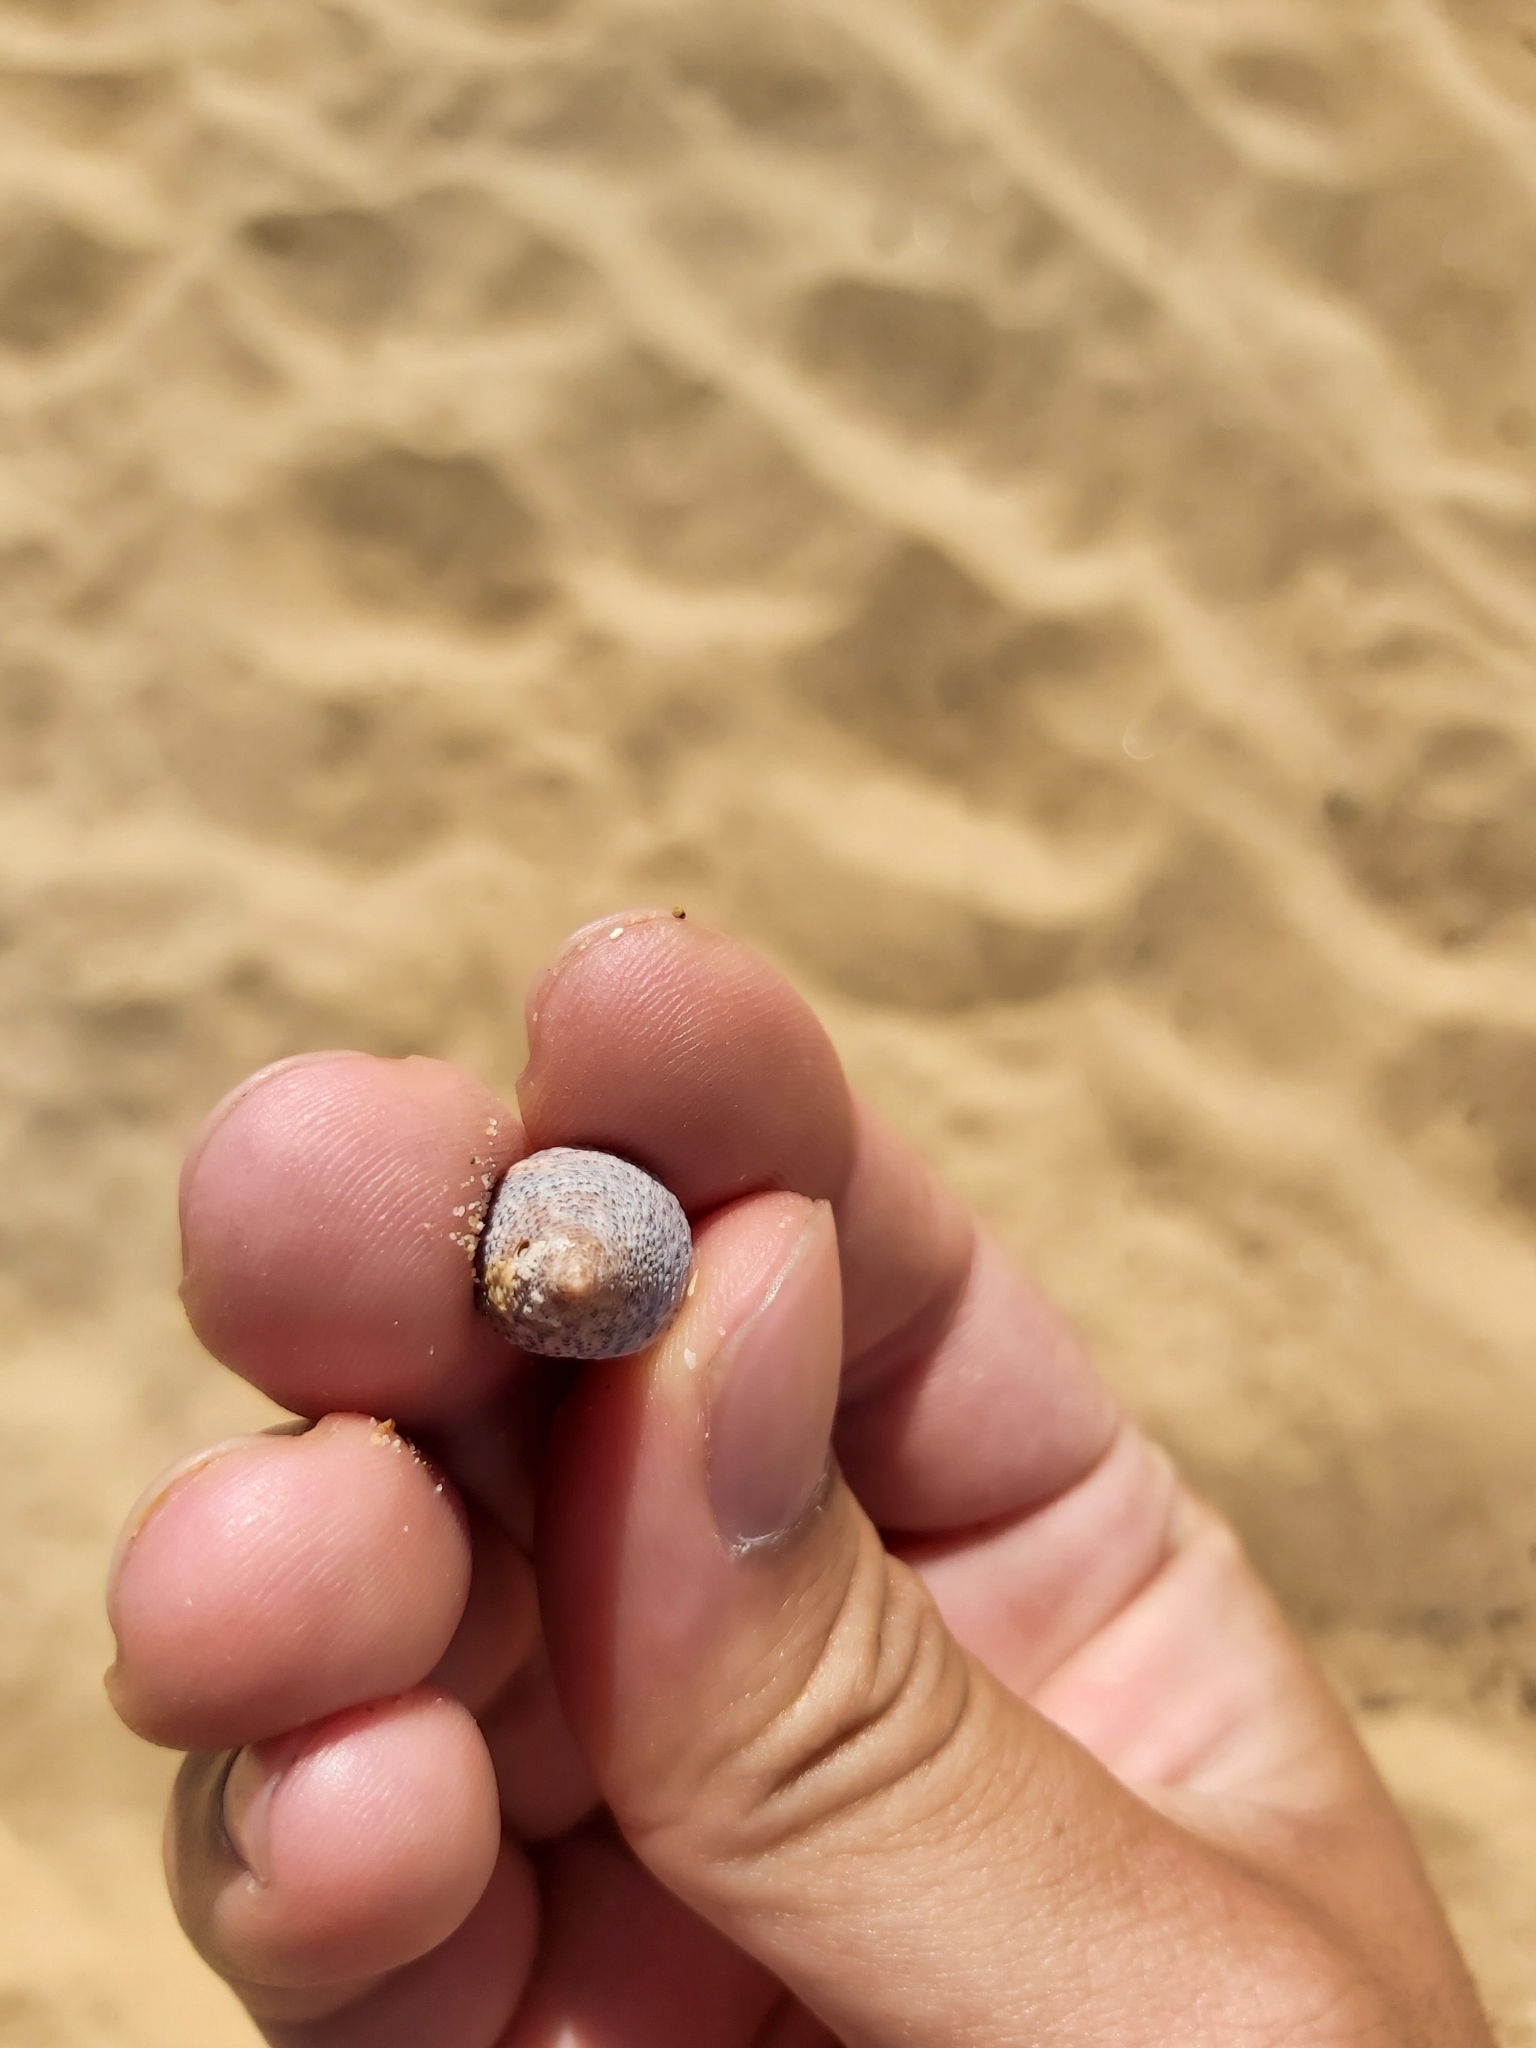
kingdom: Animalia
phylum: Mollusca
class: Gastropoda
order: Trochida
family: Trochidae
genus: Calthalotia
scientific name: Calthalotia fragum
